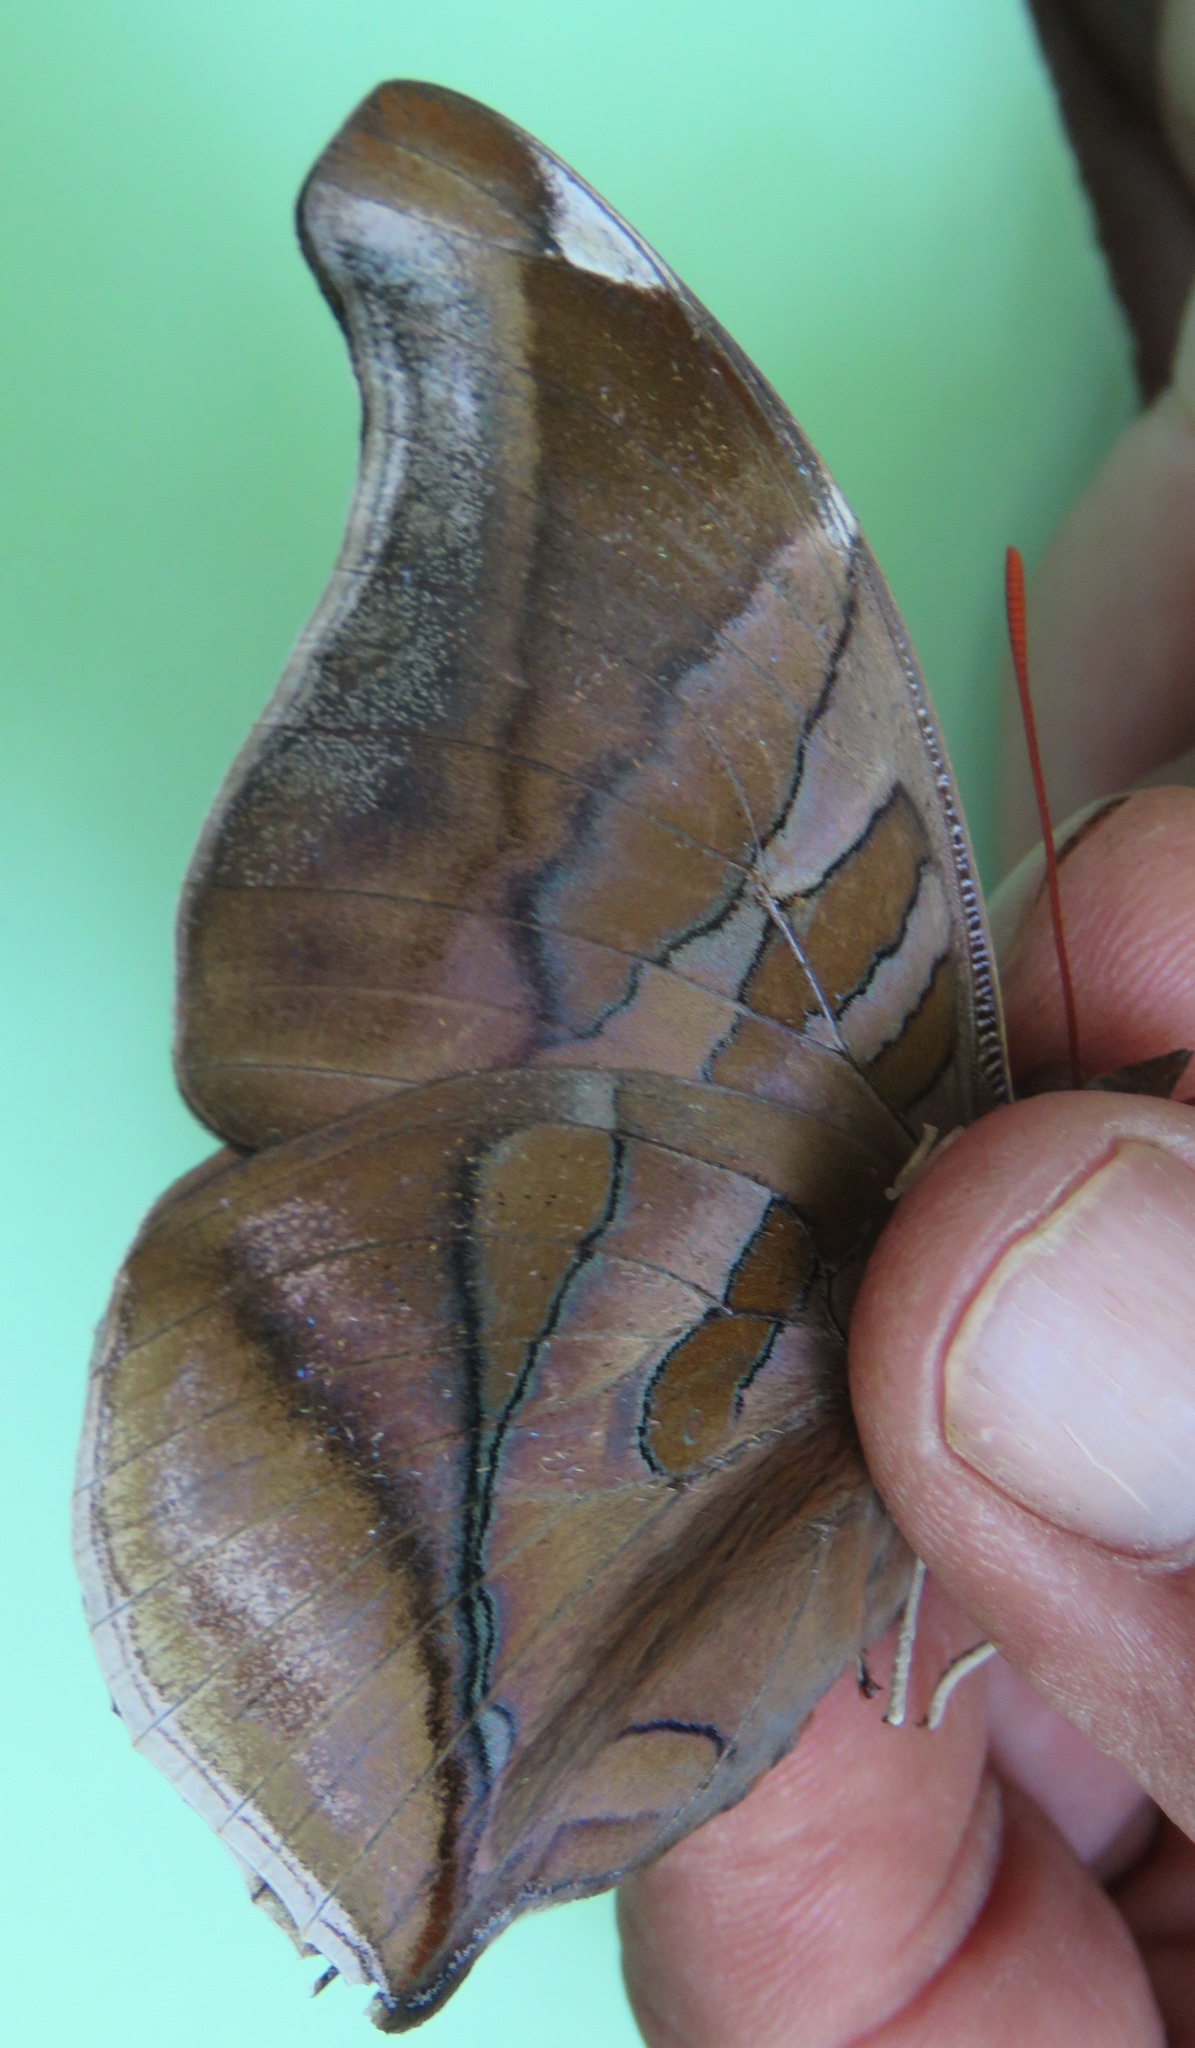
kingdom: Animalia
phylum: Arthropoda
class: Insecta
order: Lepidoptera
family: Nymphalidae
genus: Historis
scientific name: Historis odius
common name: Orion cecropian
